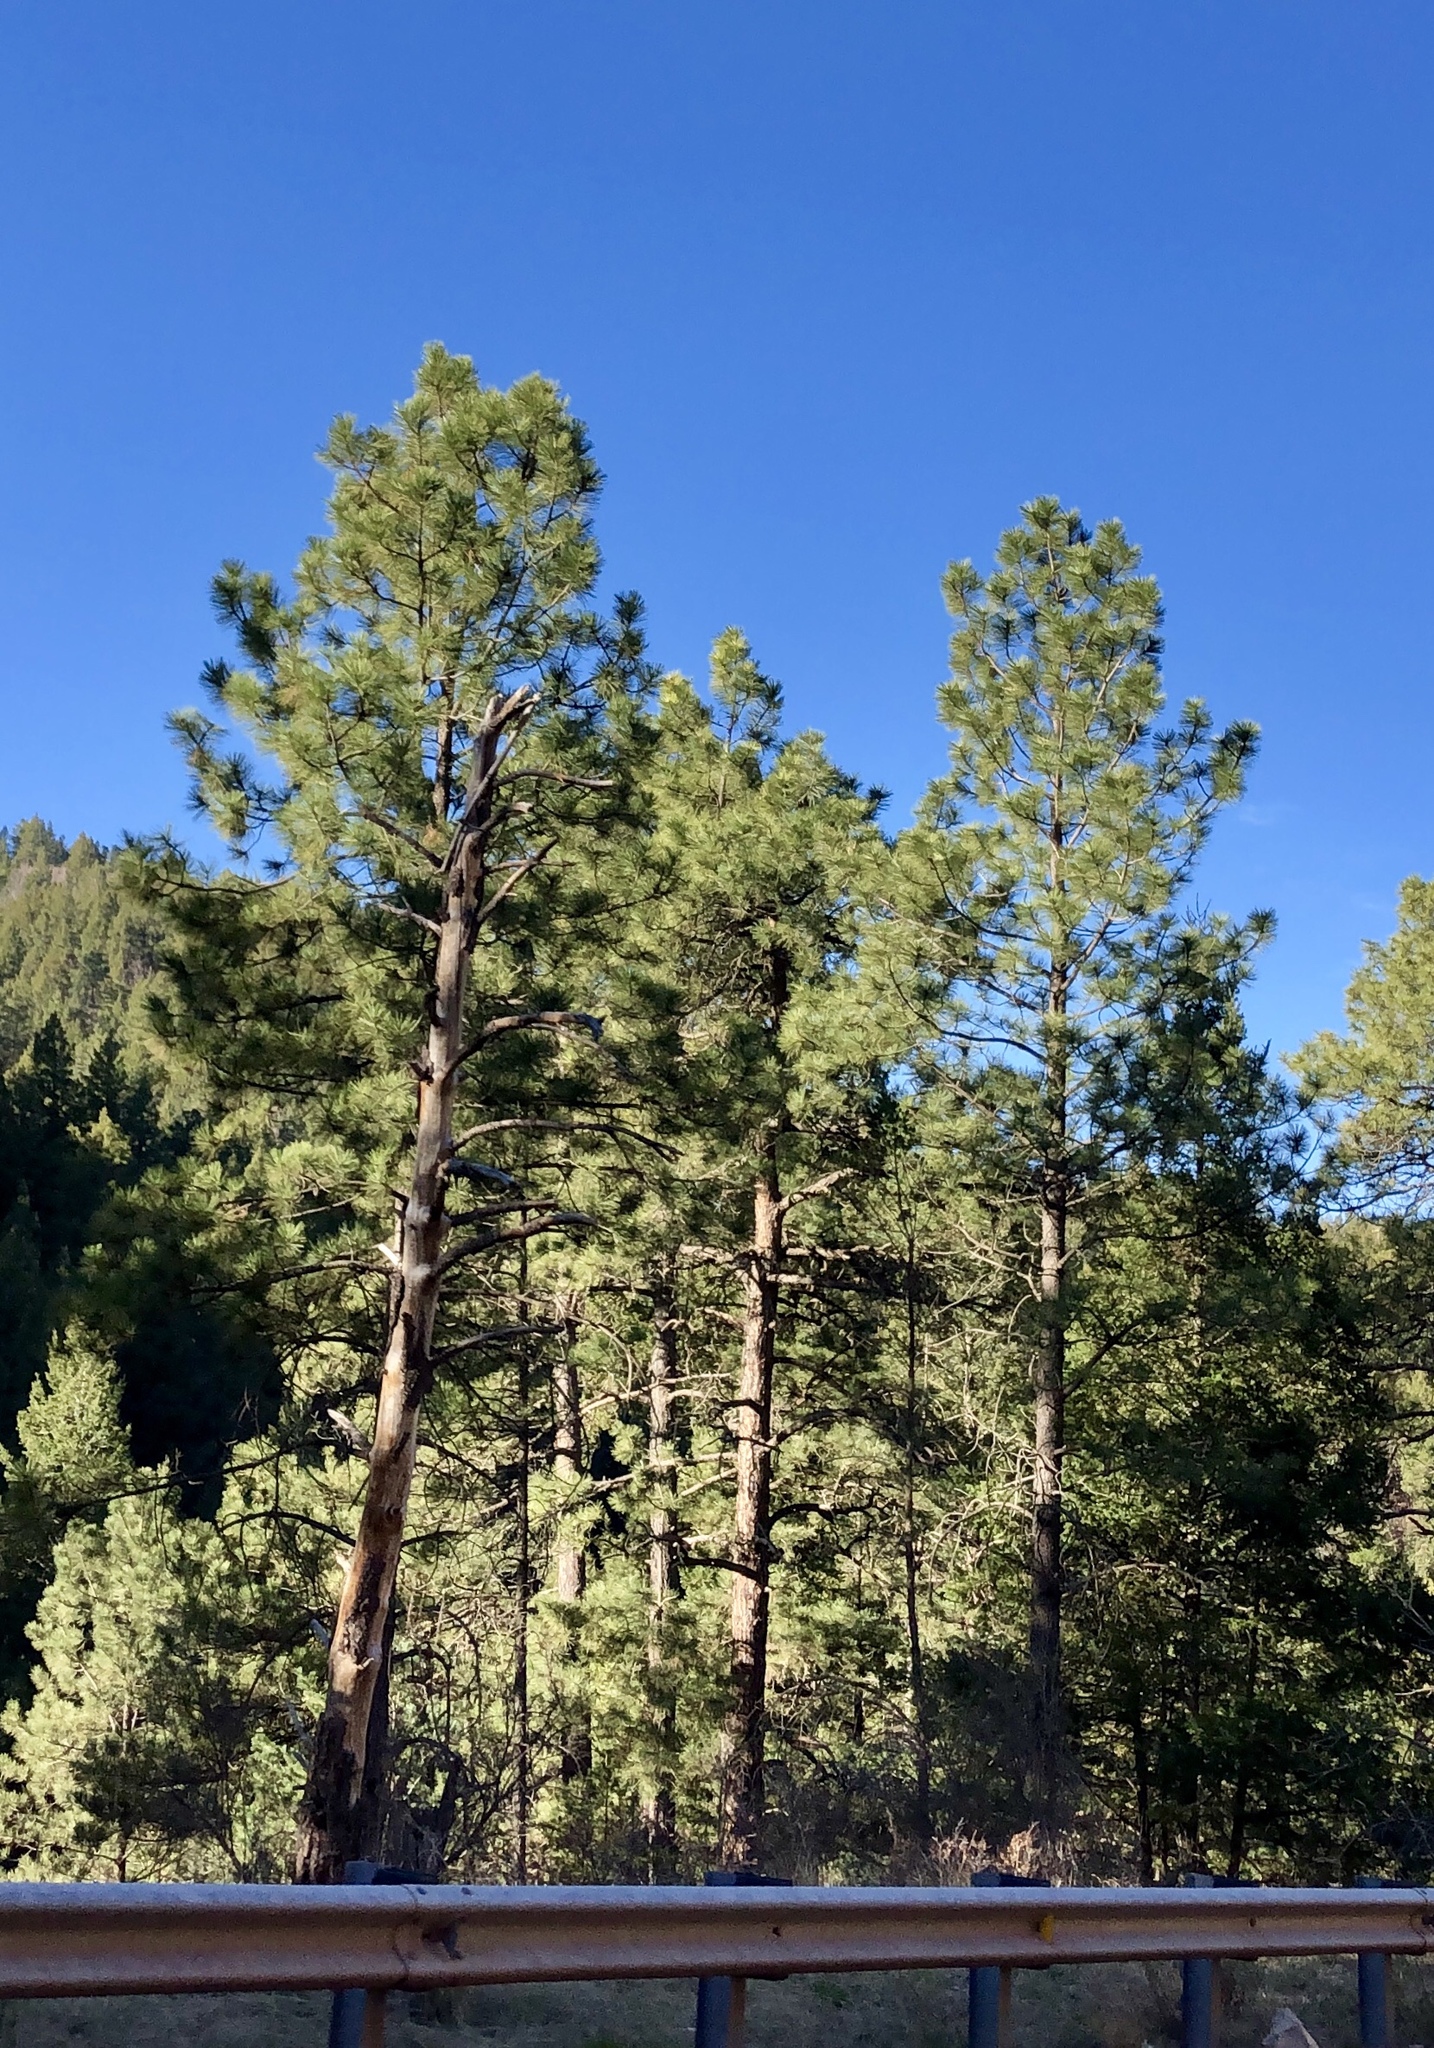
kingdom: Plantae
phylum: Tracheophyta
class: Pinopsida
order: Pinales
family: Pinaceae
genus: Pinus
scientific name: Pinus ponderosa
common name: Western yellow-pine
